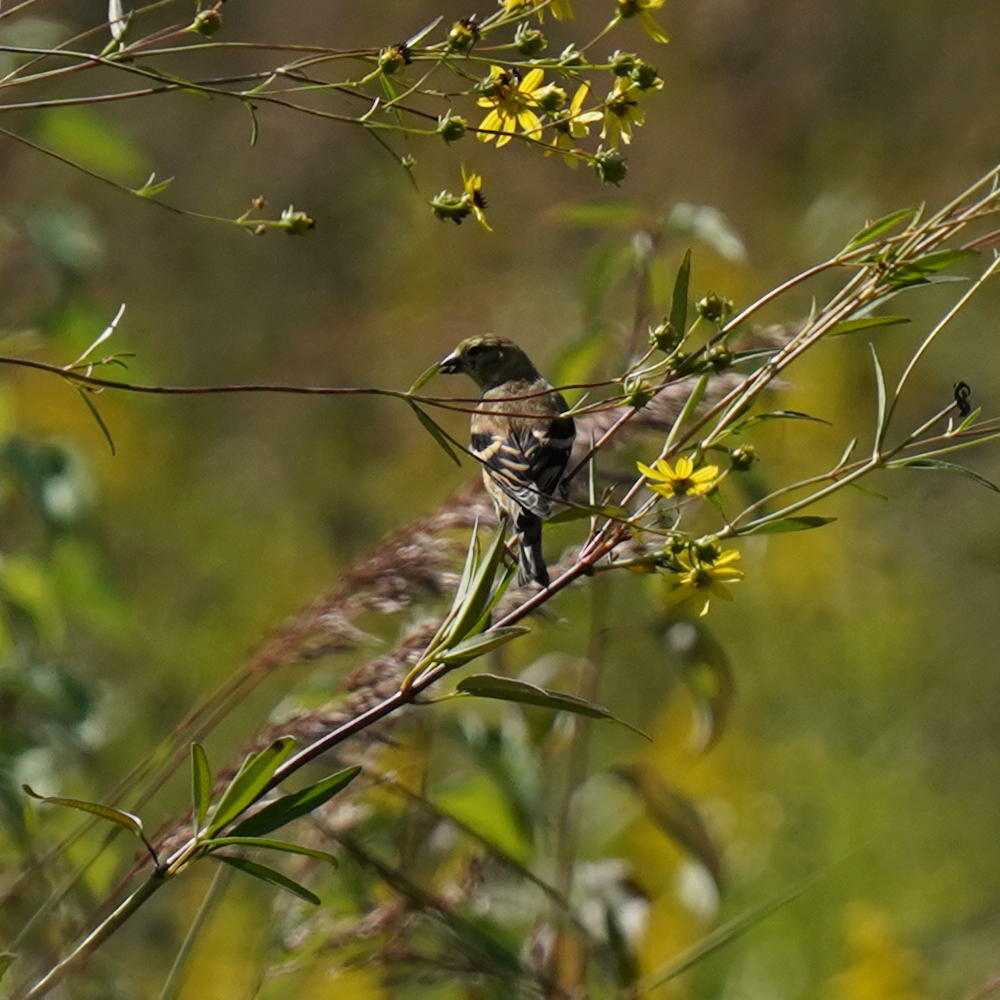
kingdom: Animalia
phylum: Chordata
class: Aves
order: Passeriformes
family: Fringillidae
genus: Spinus
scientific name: Spinus tristis
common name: American goldfinch
